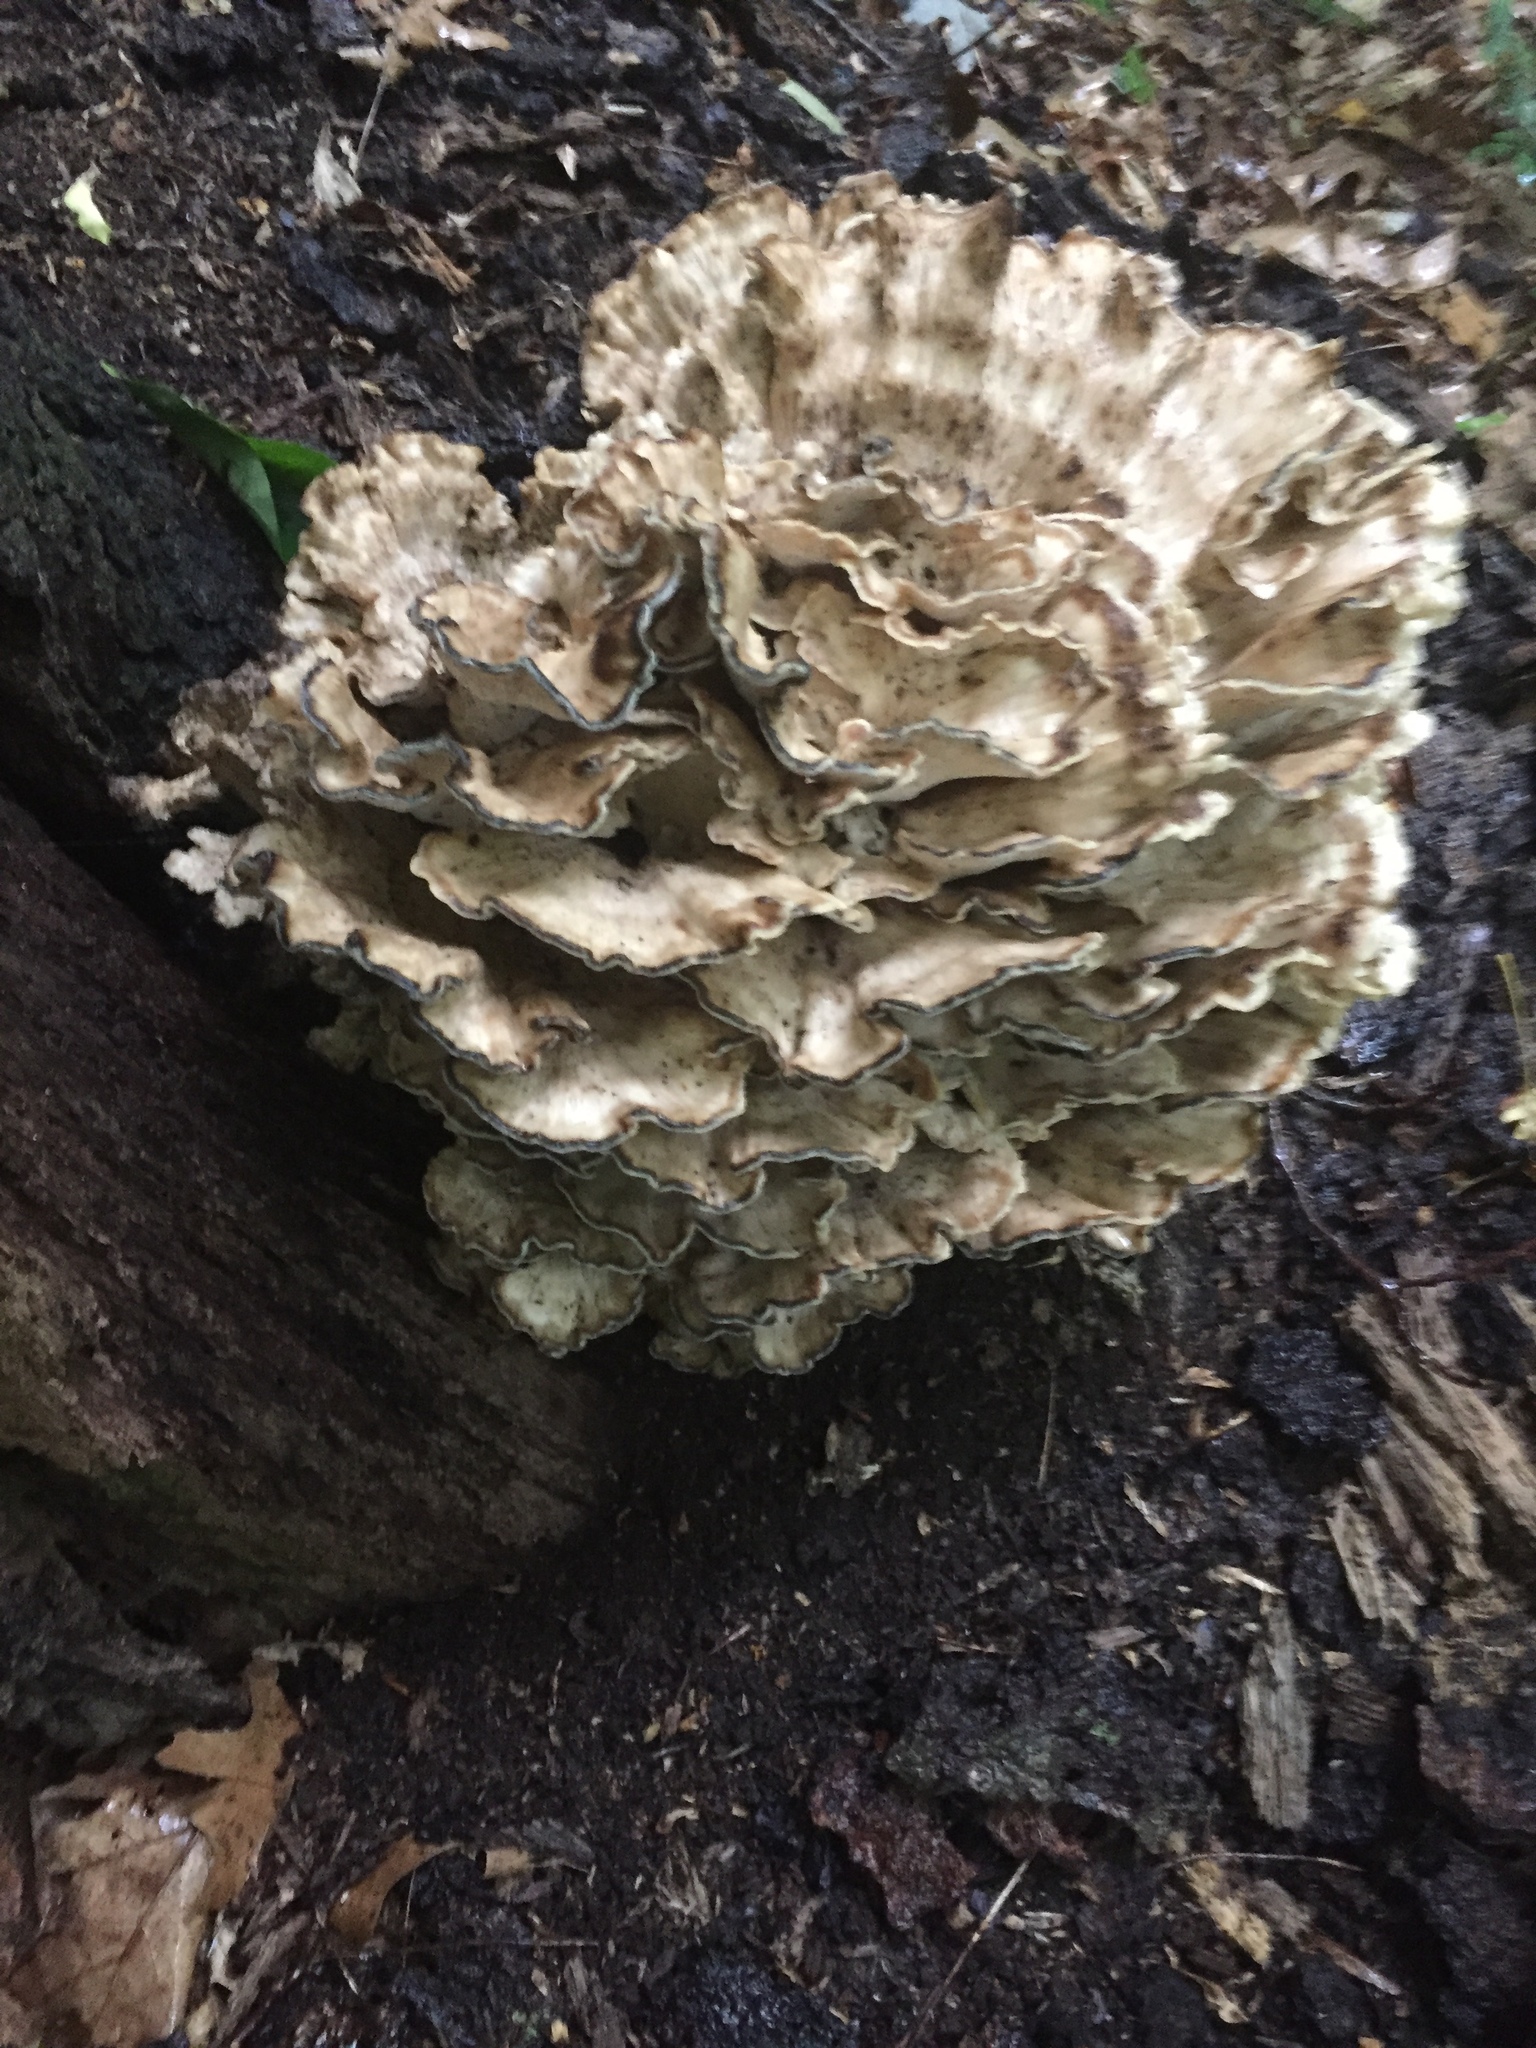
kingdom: Fungi
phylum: Basidiomycota
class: Agaricomycetes
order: Polyporales
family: Meripilaceae
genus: Meripilus
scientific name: Meripilus sumstinei
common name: Black-staining polypore
